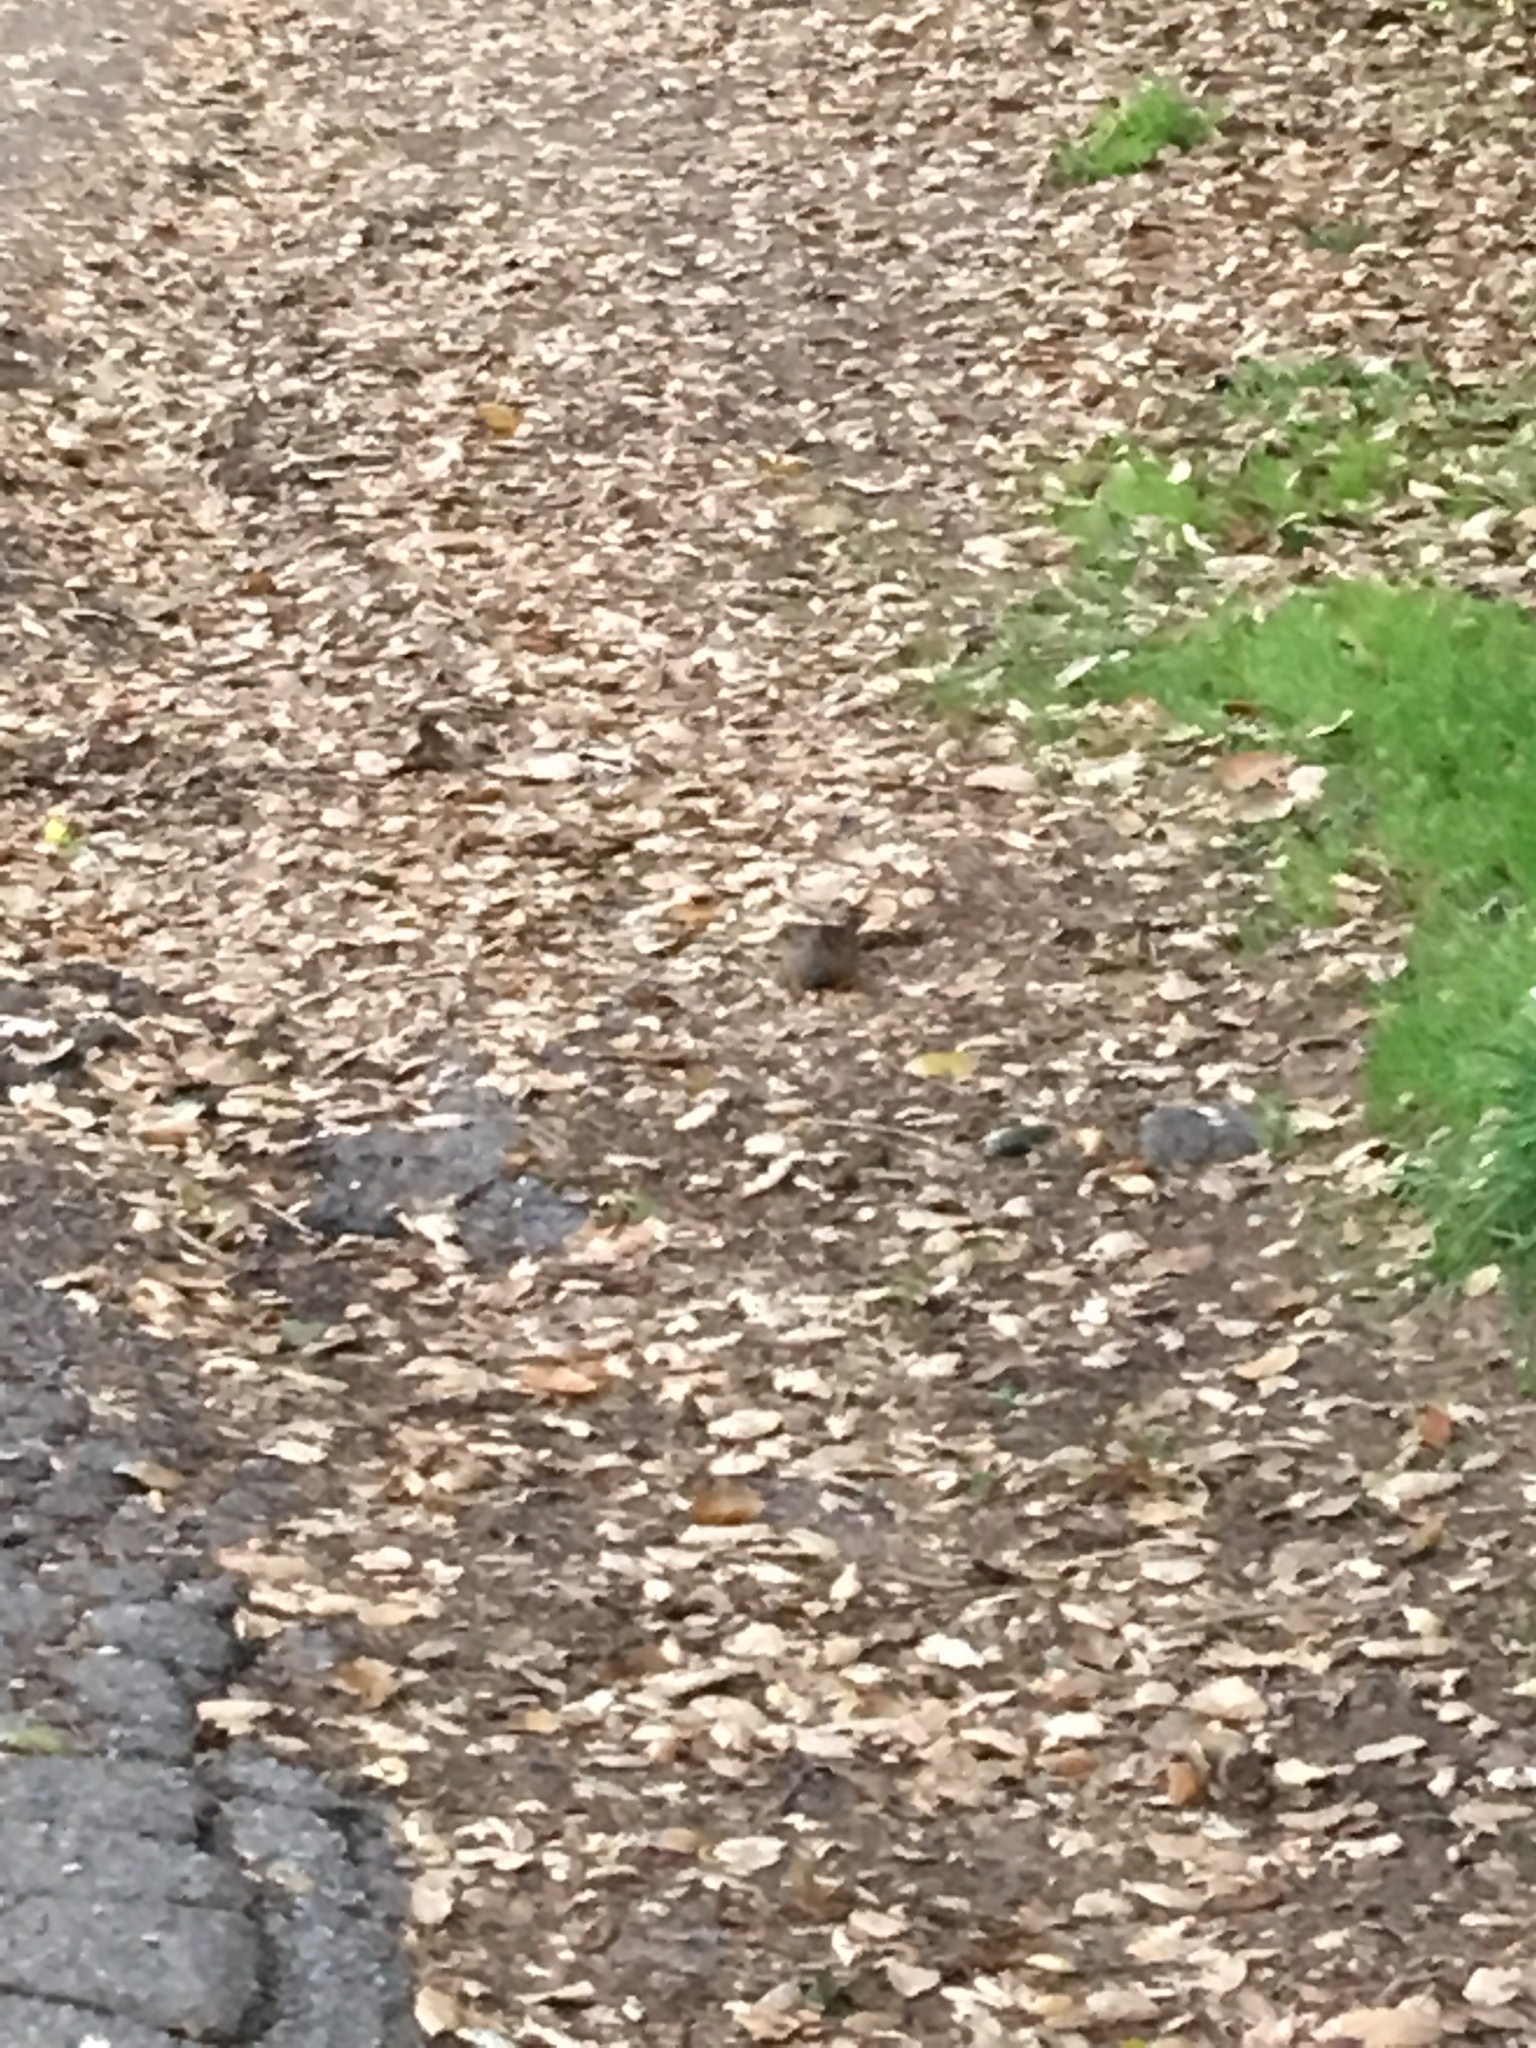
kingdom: Animalia
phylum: Chordata
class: Aves
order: Passeriformes
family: Passerellidae
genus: Zonotrichia
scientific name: Zonotrichia atricapilla
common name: Golden-crowned sparrow
